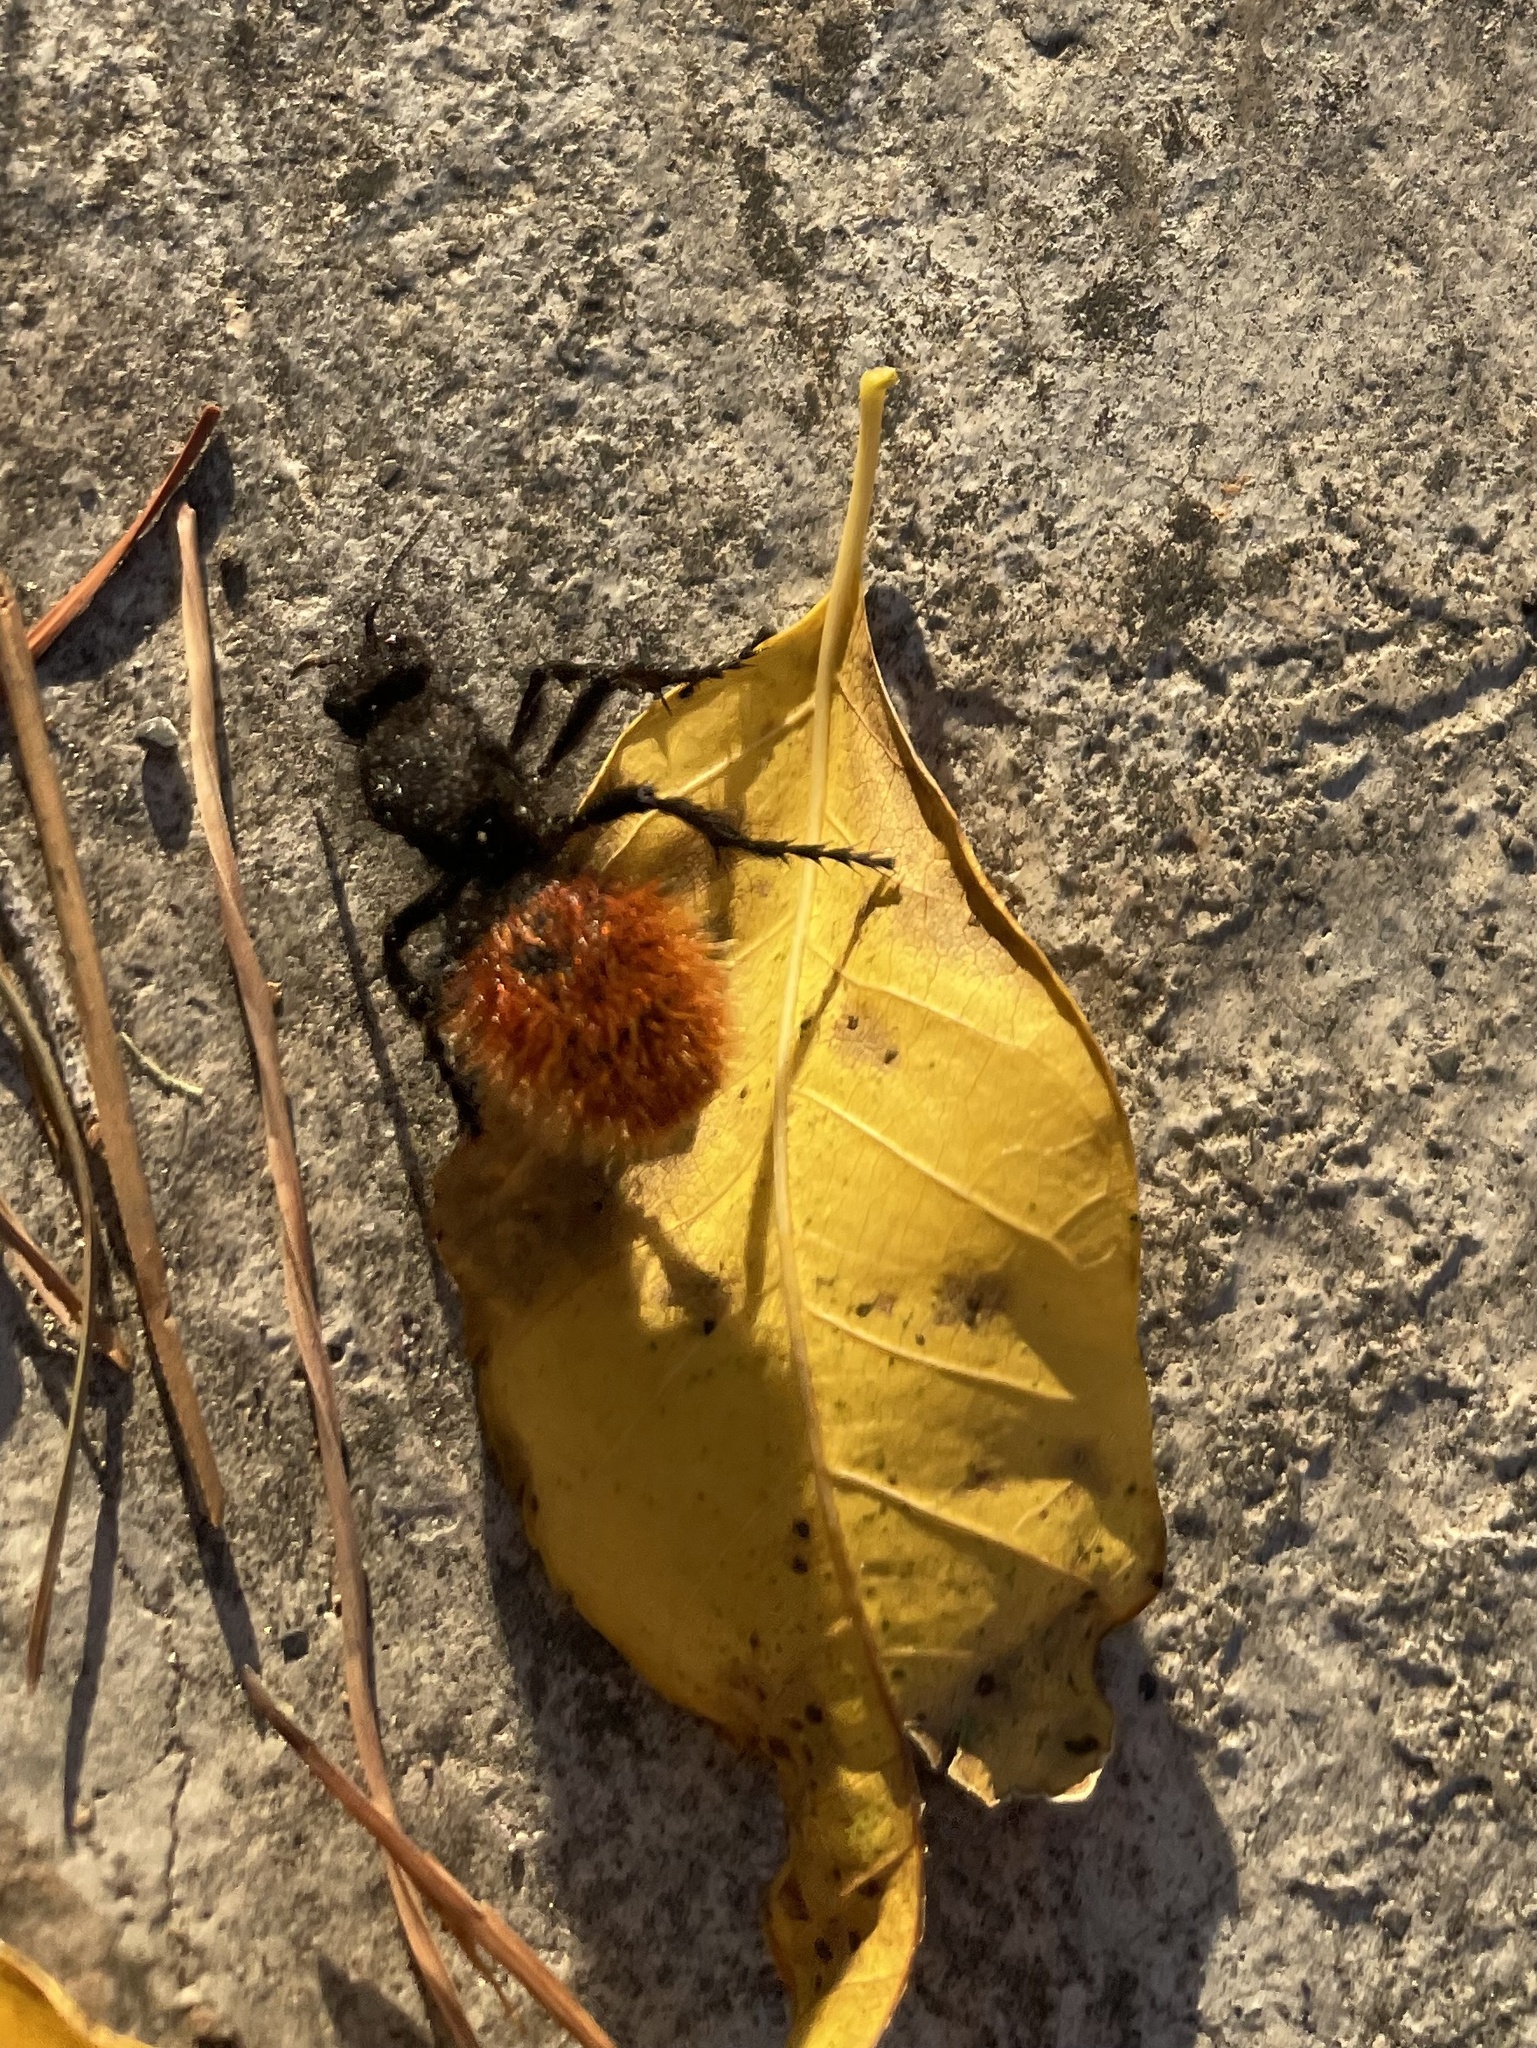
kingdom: Animalia
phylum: Arthropoda
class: Insecta
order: Hymenoptera
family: Mutillidae
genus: Dasymutilla
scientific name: Dasymutilla
